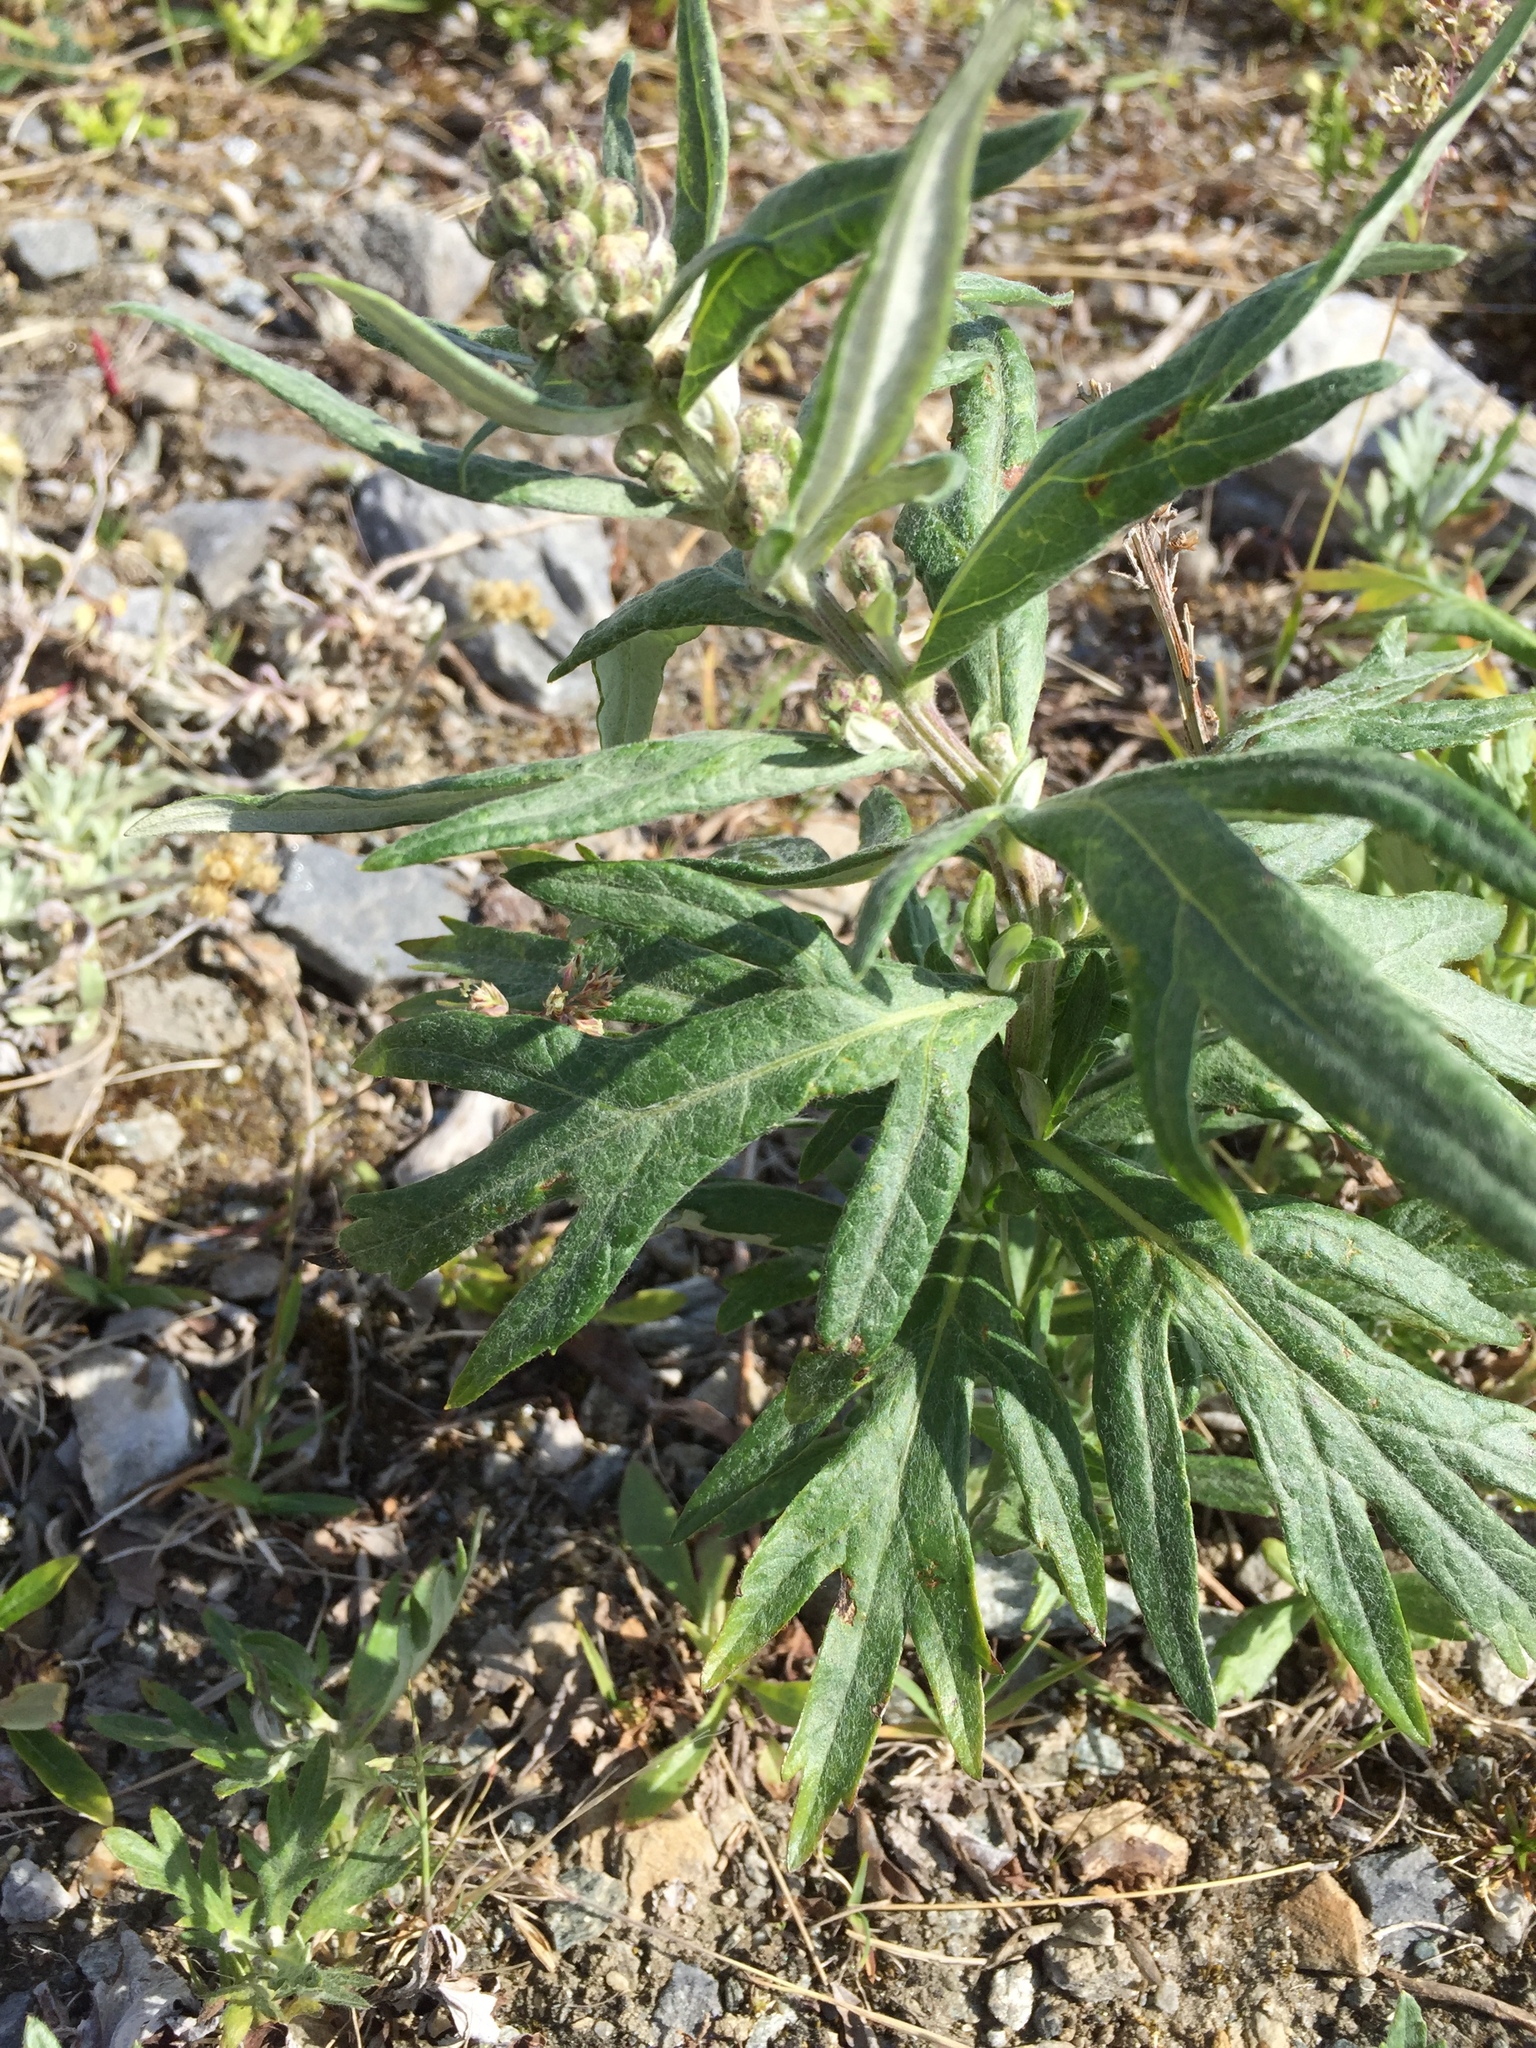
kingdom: Plantae
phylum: Tracheophyta
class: Magnoliopsida
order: Asterales
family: Asteraceae
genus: Artemisia
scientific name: Artemisia tilesii
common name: Aleutian mugwort
